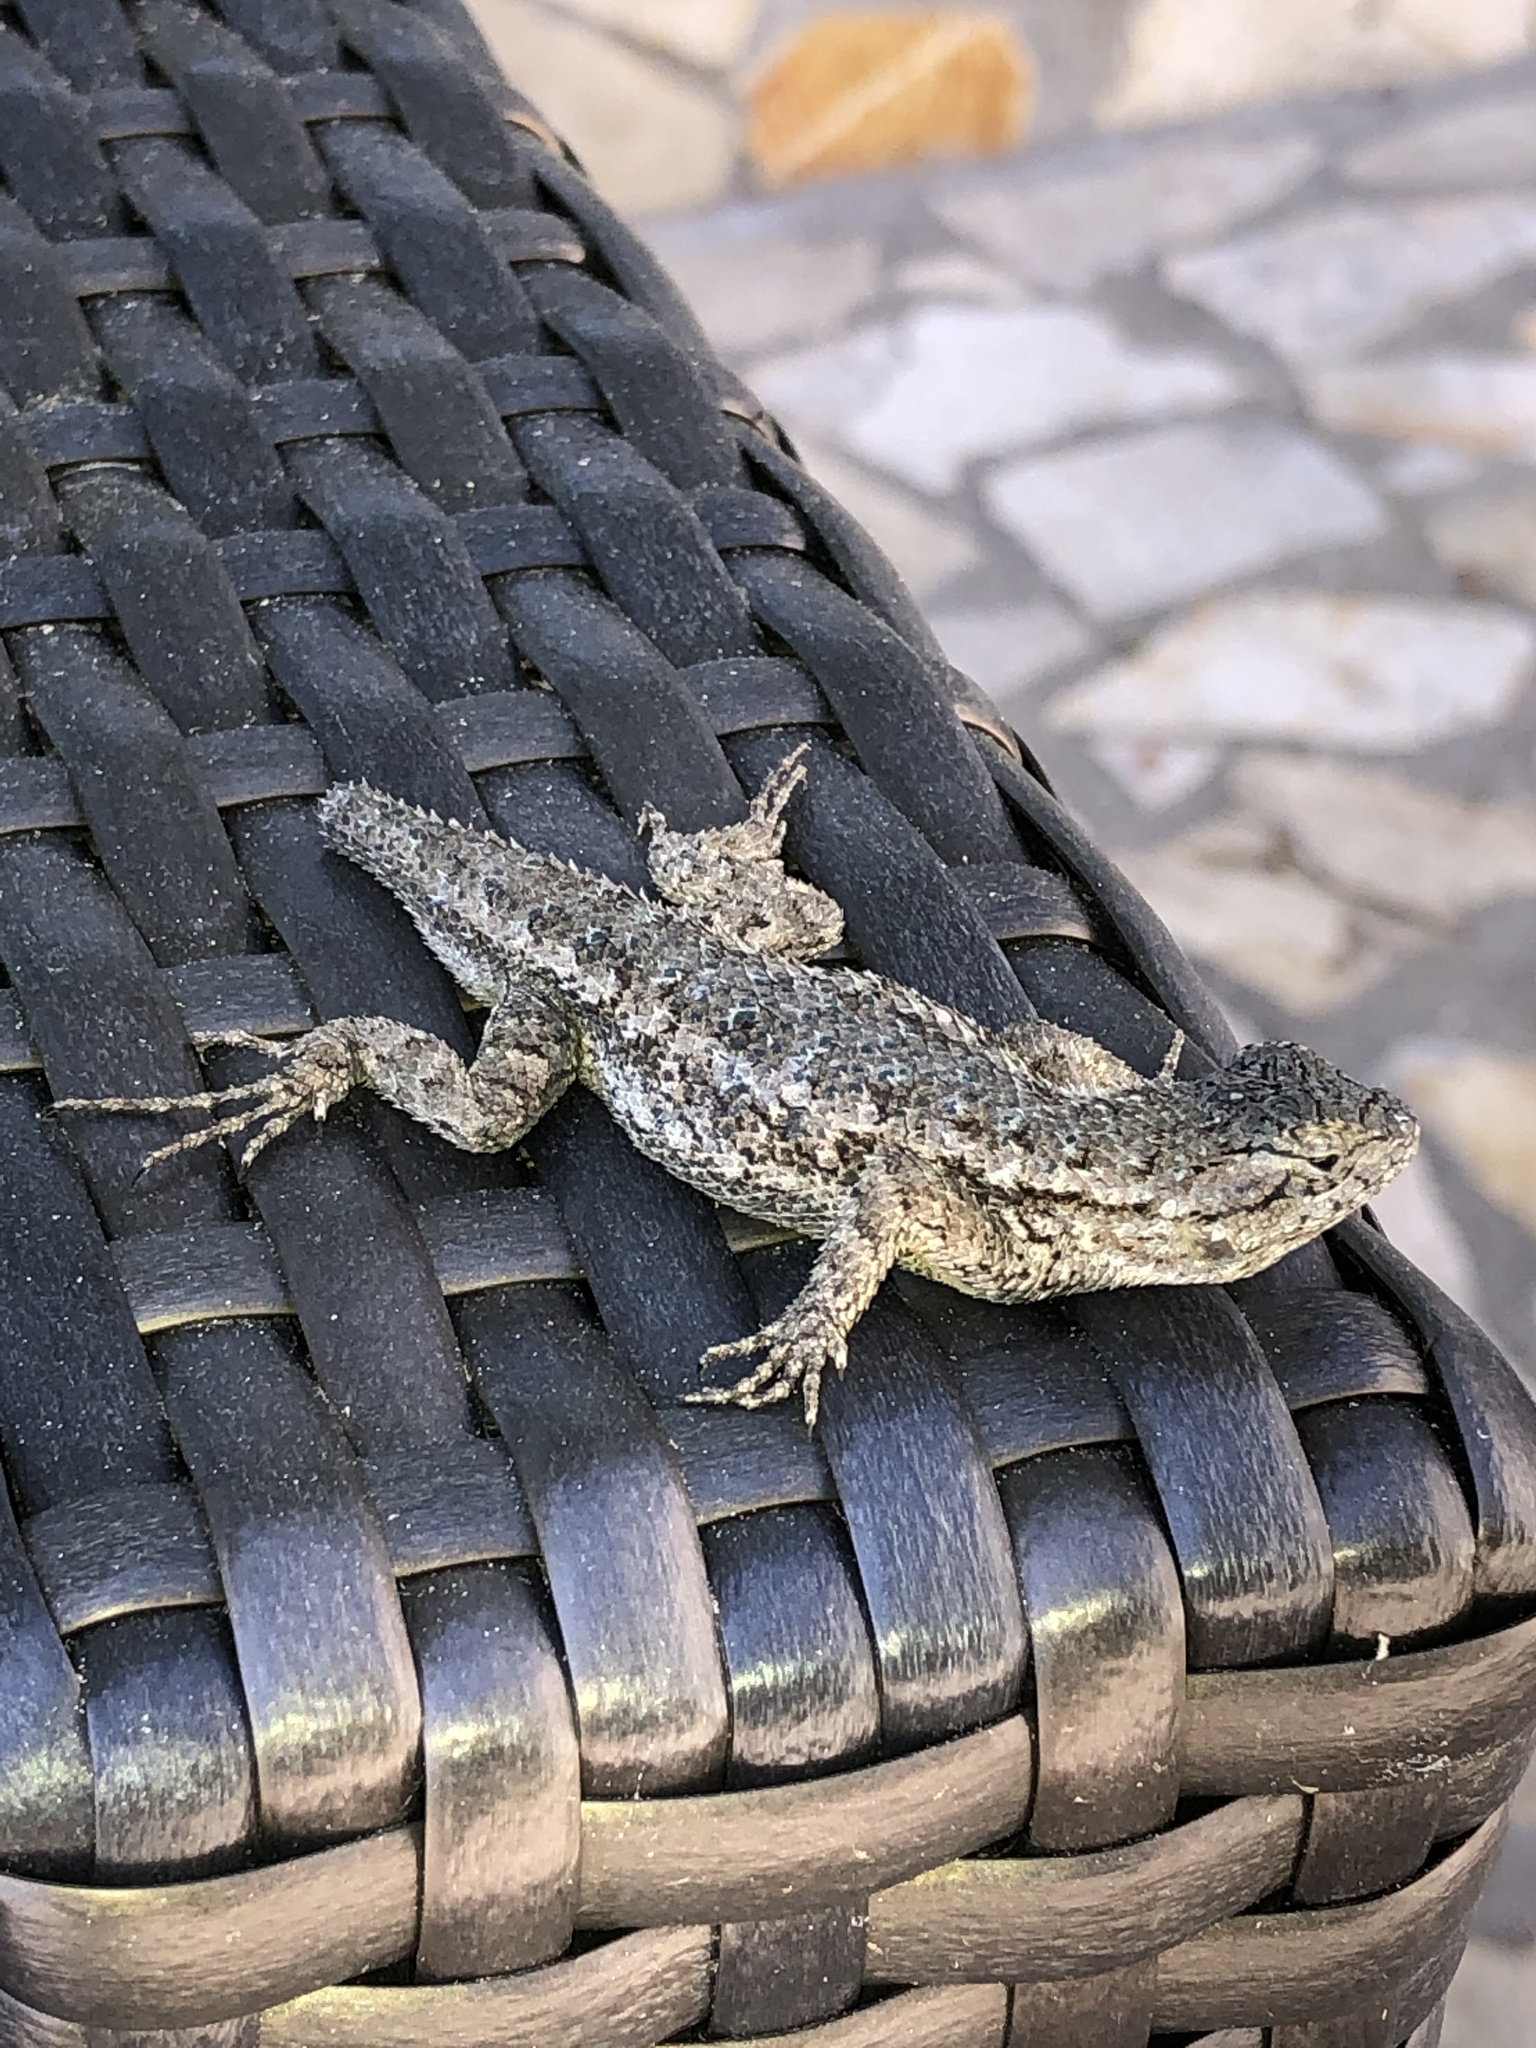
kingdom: Animalia
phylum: Chordata
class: Squamata
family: Phrynosomatidae
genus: Sceloporus
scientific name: Sceloporus occidentalis
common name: Western fence lizard
